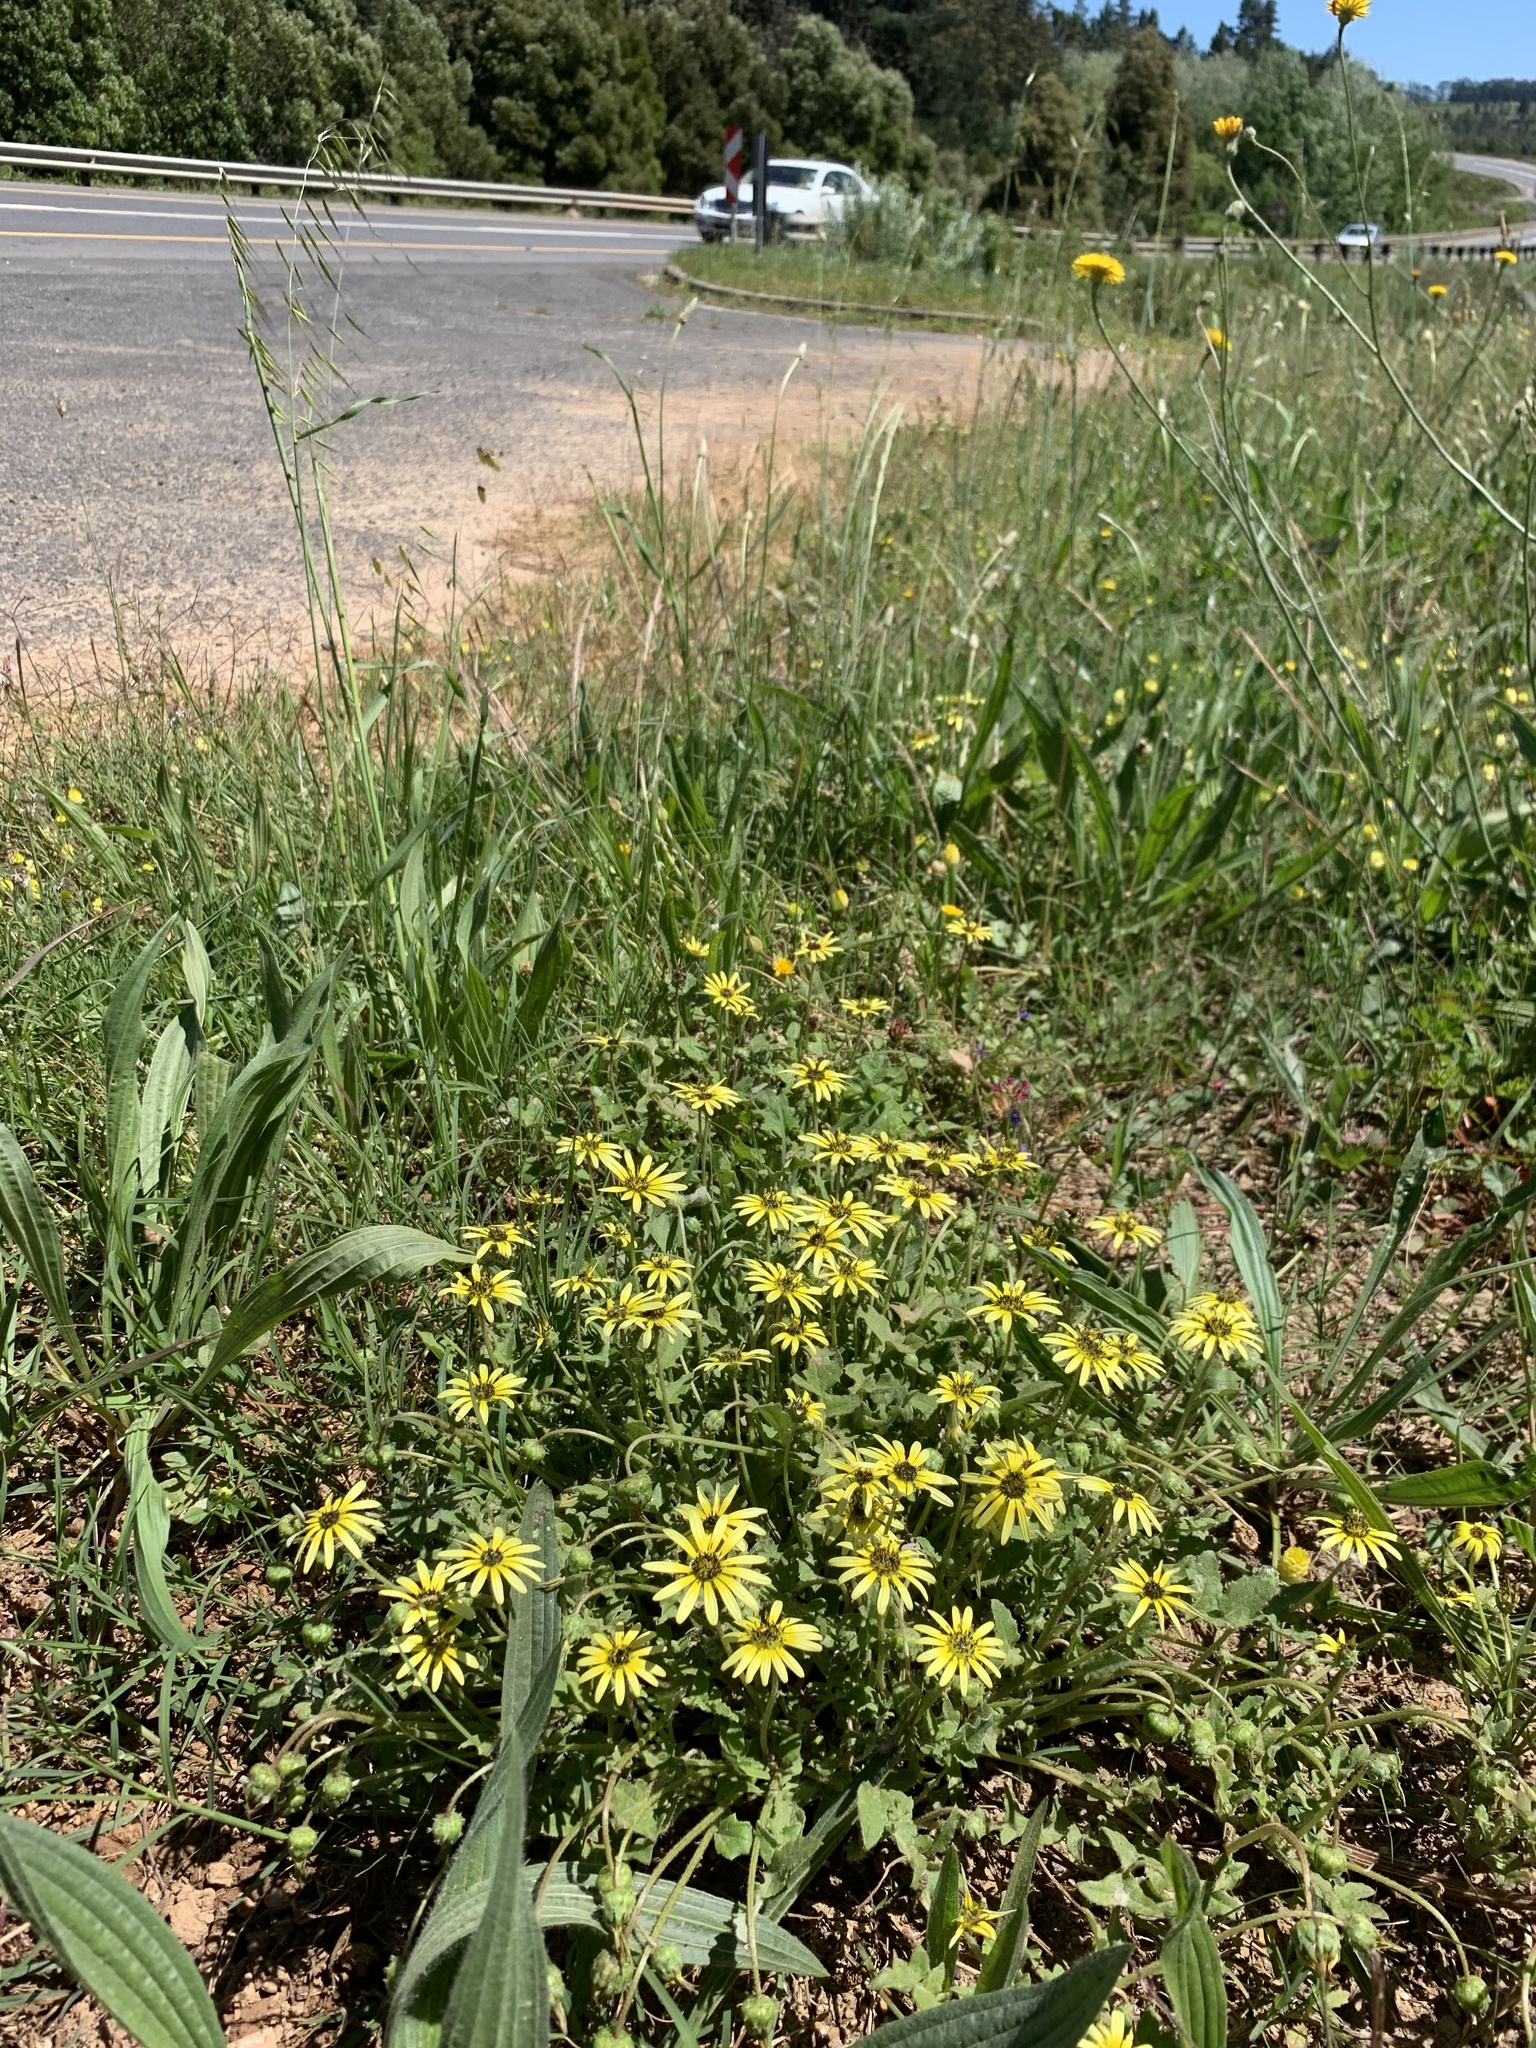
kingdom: Plantae
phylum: Tracheophyta
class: Magnoliopsida
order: Asterales
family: Asteraceae
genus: Arctotheca
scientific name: Arctotheca calendula
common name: Capeweed
